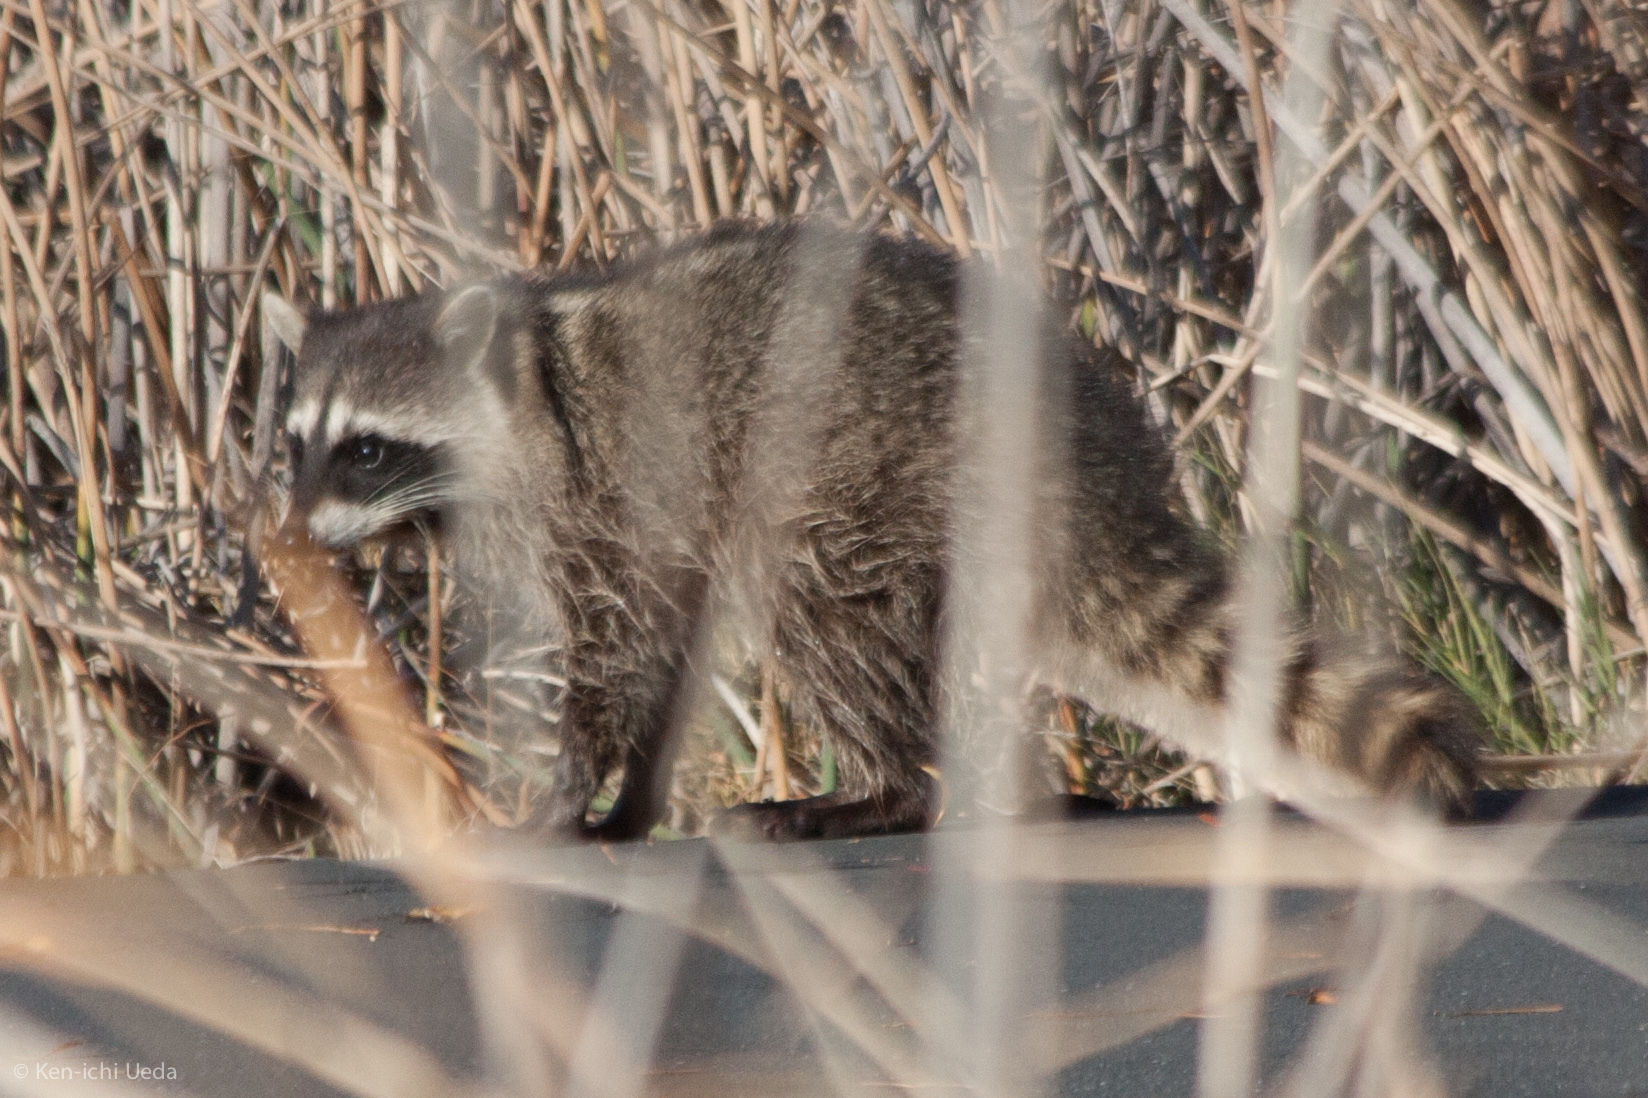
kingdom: Animalia
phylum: Chordata
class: Mammalia
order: Carnivora
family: Procyonidae
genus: Procyon
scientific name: Procyon lotor
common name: Raccoon
